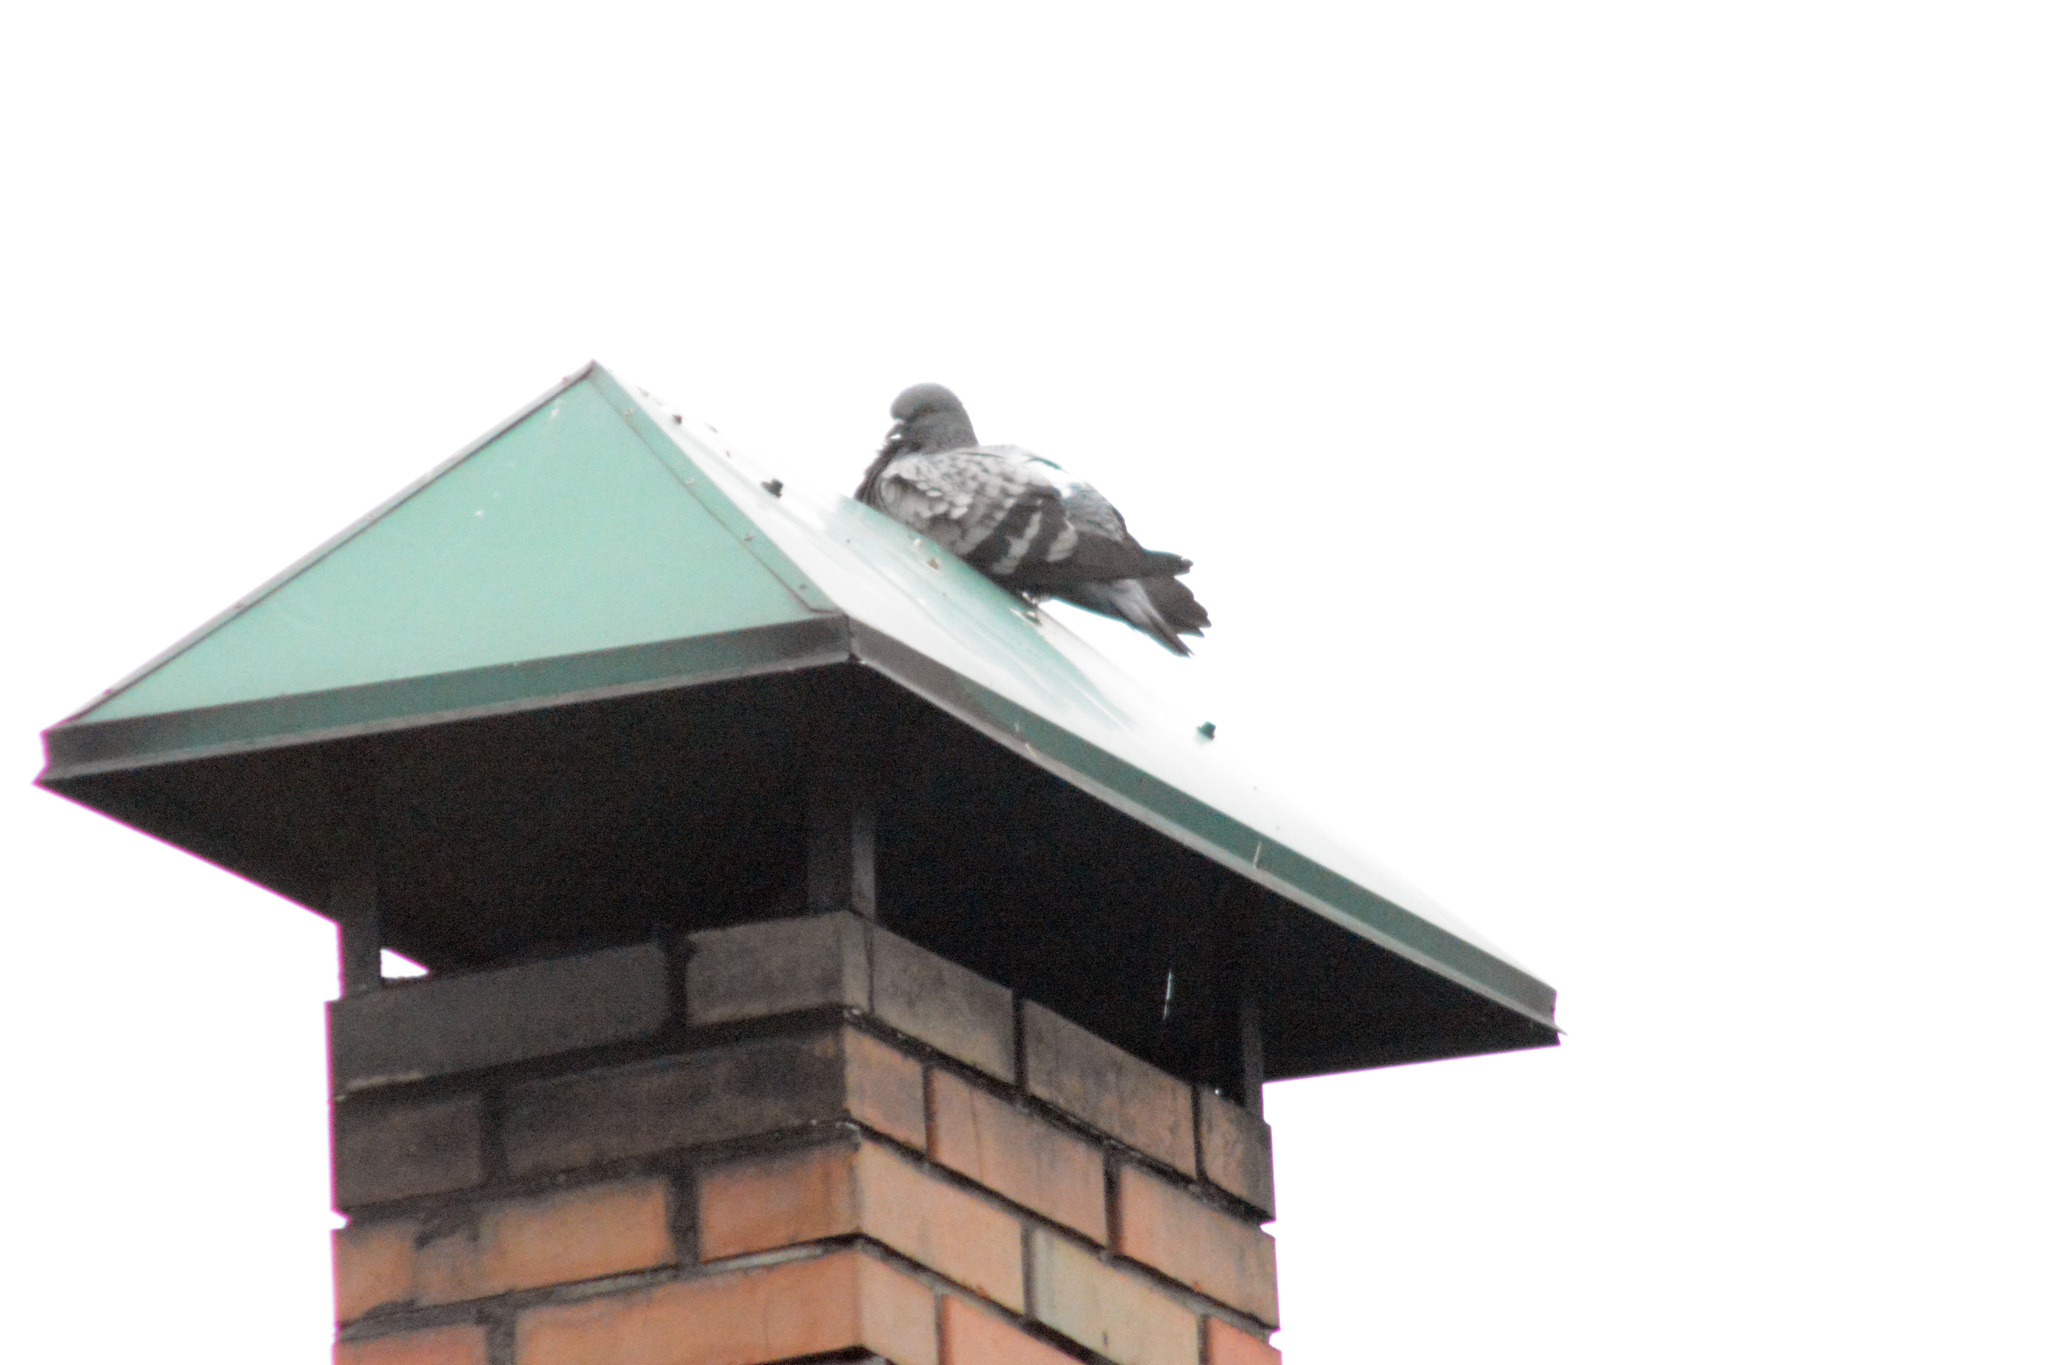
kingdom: Animalia
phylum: Chordata
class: Aves
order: Columbiformes
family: Columbidae
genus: Columba
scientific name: Columba livia
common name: Rock pigeon
